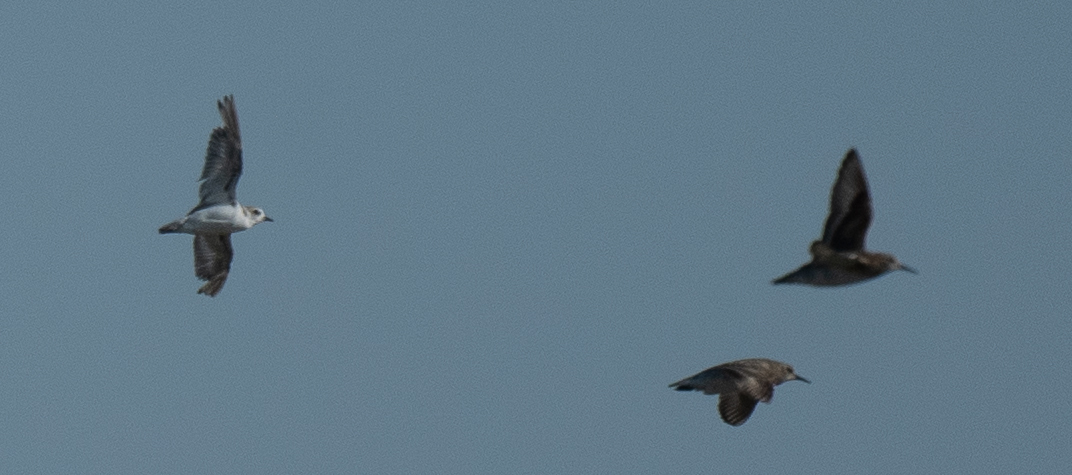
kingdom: Animalia
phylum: Chordata
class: Aves
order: Charadriiformes
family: Scolopacidae
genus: Calidris
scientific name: Calidris bairdii
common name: Baird's sandpiper
